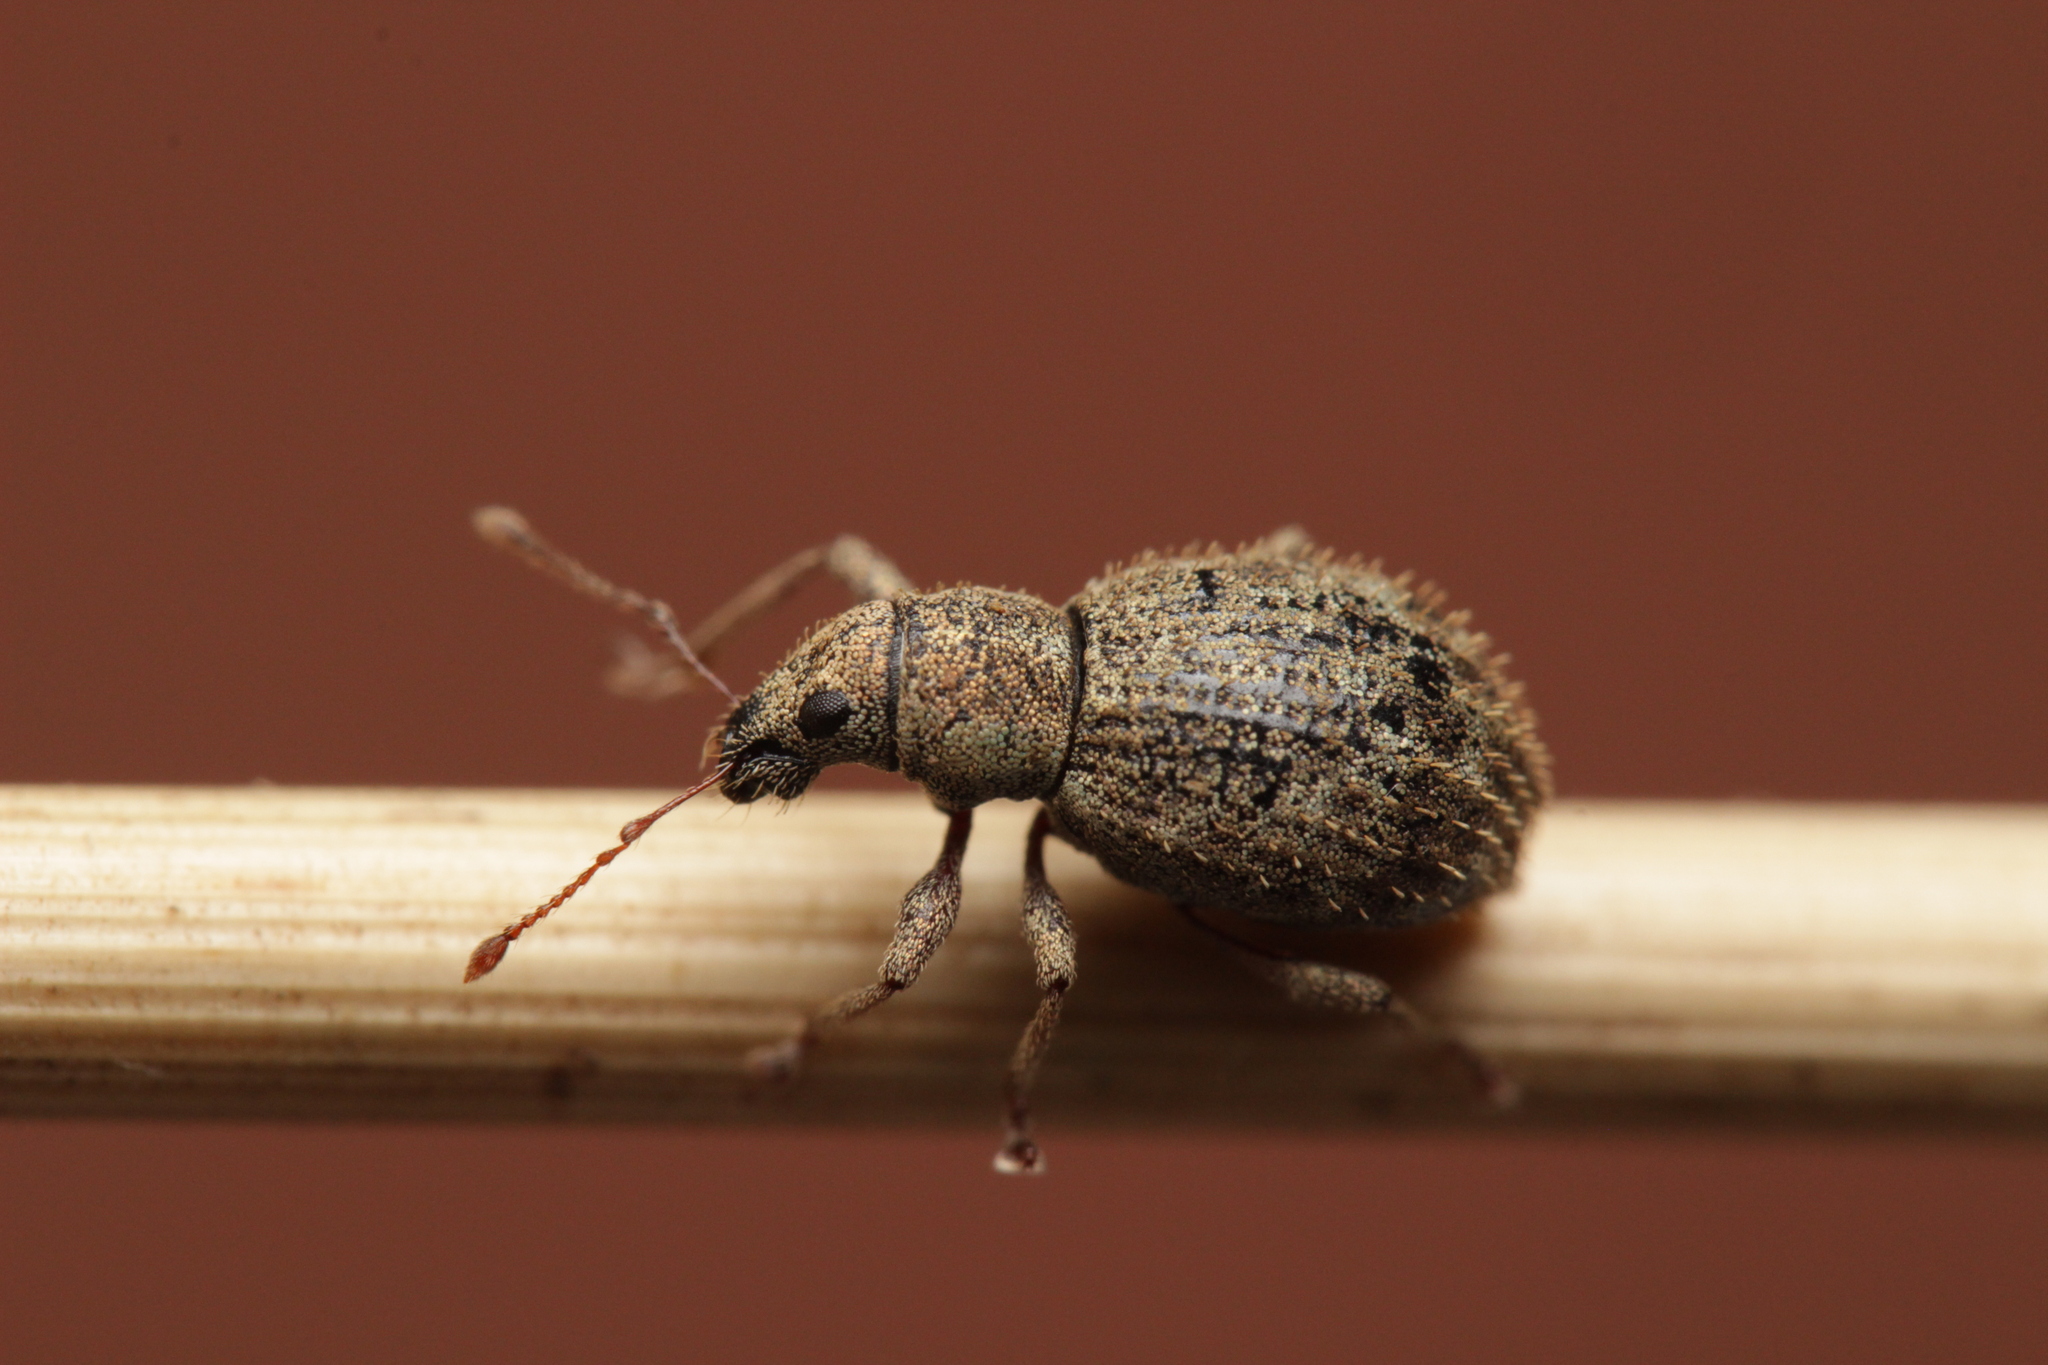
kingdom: Animalia
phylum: Arthropoda
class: Insecta
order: Coleoptera
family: Curculionidae
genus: Sciaphilus
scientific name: Sciaphilus asperatus
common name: Weevil
